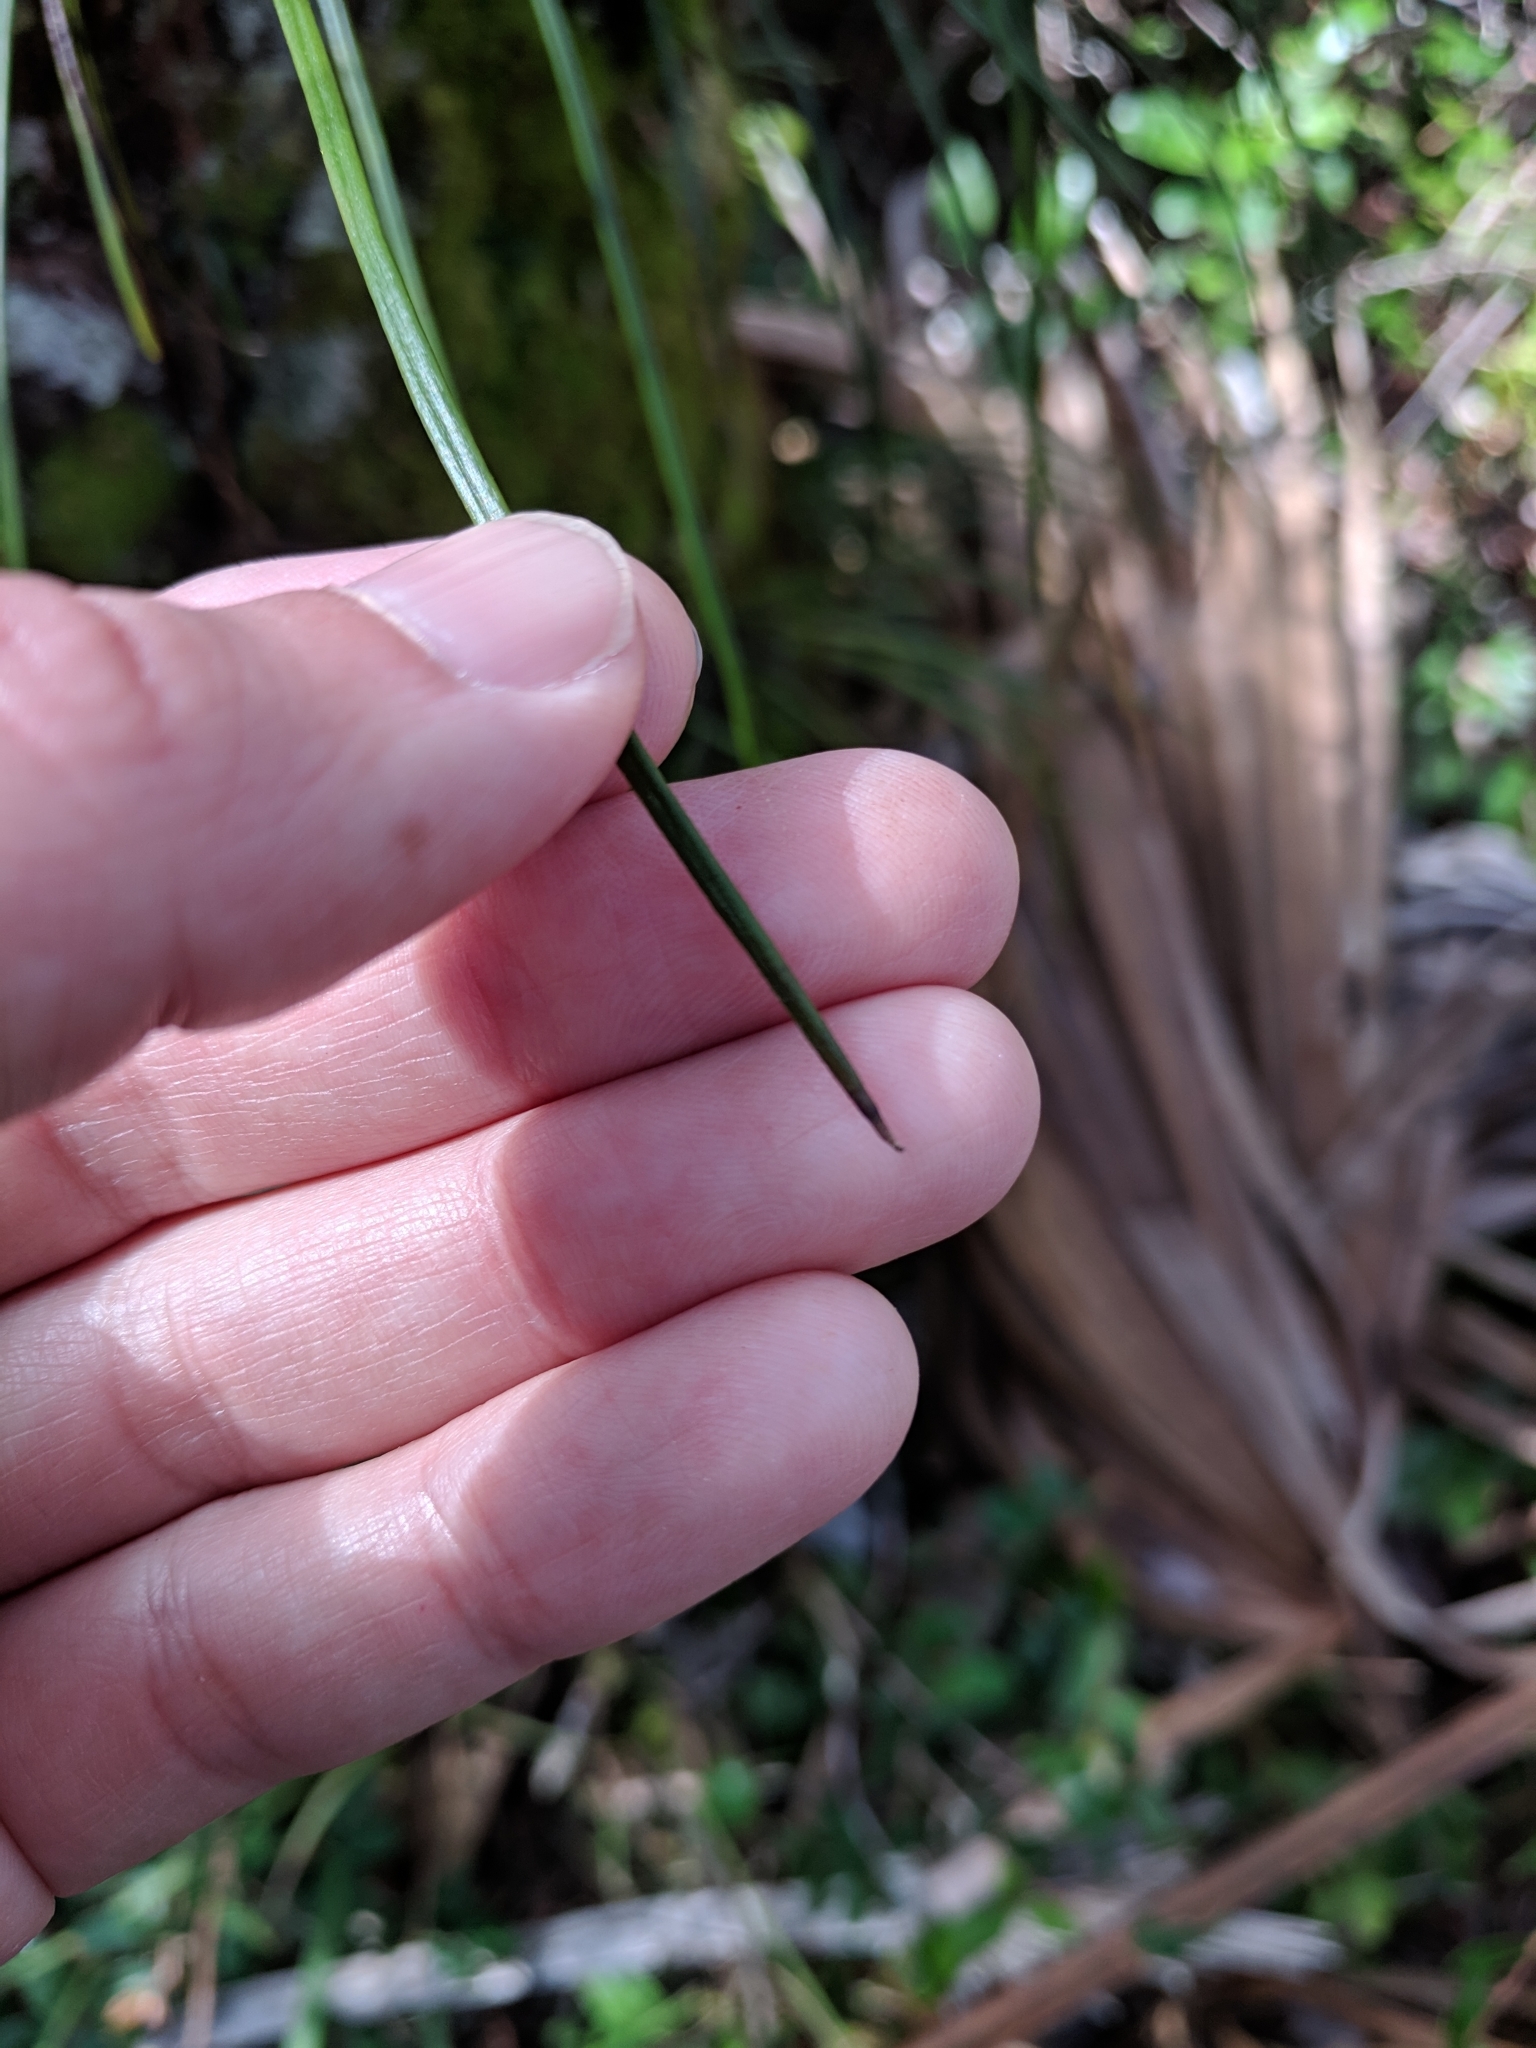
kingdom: Plantae
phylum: Tracheophyta
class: Polypodiopsida
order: Polypodiales
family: Pteridaceae
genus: Vittaria
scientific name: Vittaria lineata
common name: Shoestring fern
